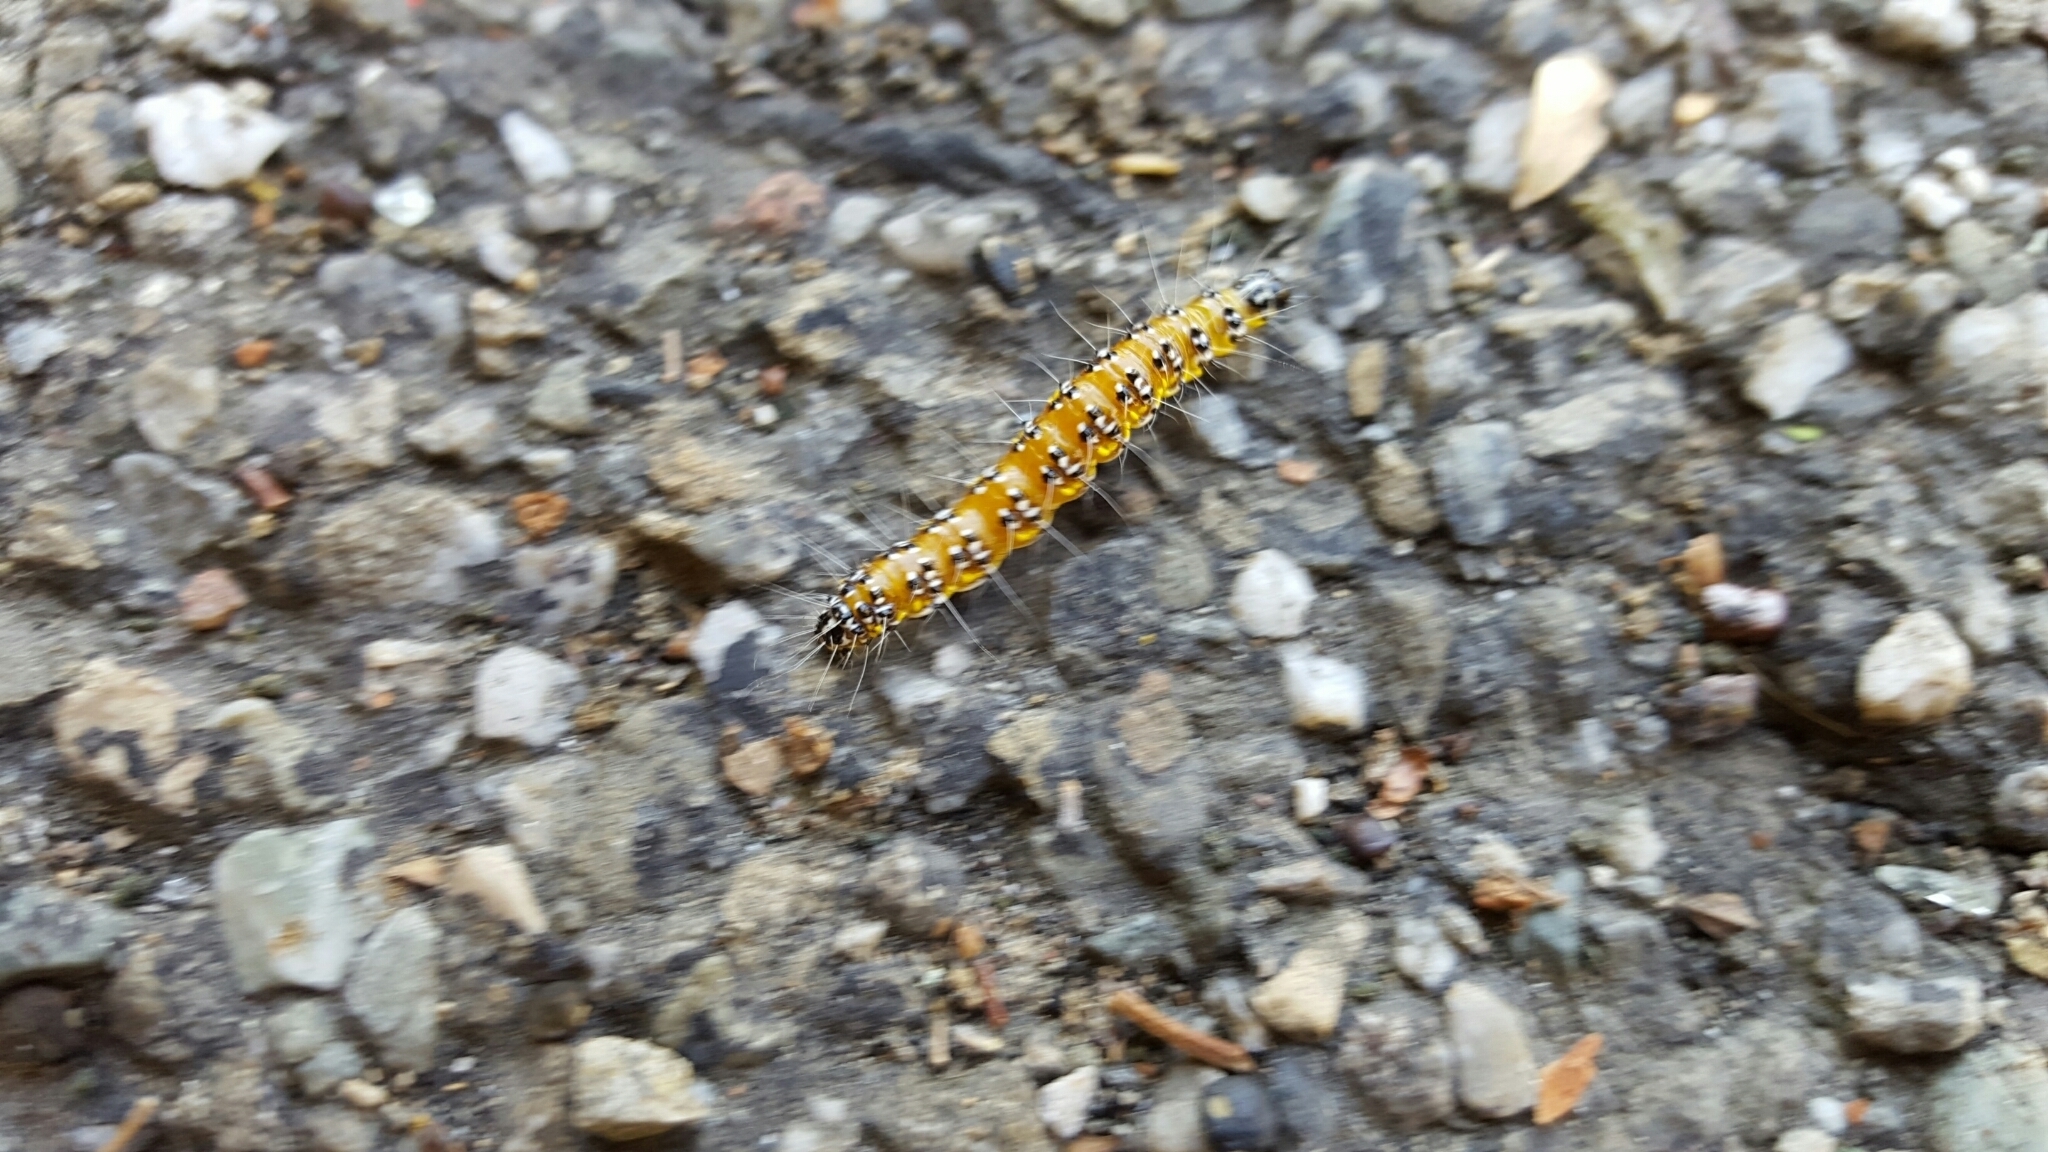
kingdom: Animalia
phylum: Arthropoda
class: Insecta
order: Lepidoptera
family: Crambidae
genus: Uresiphita
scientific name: Uresiphita reversalis
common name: Genista broom moth
